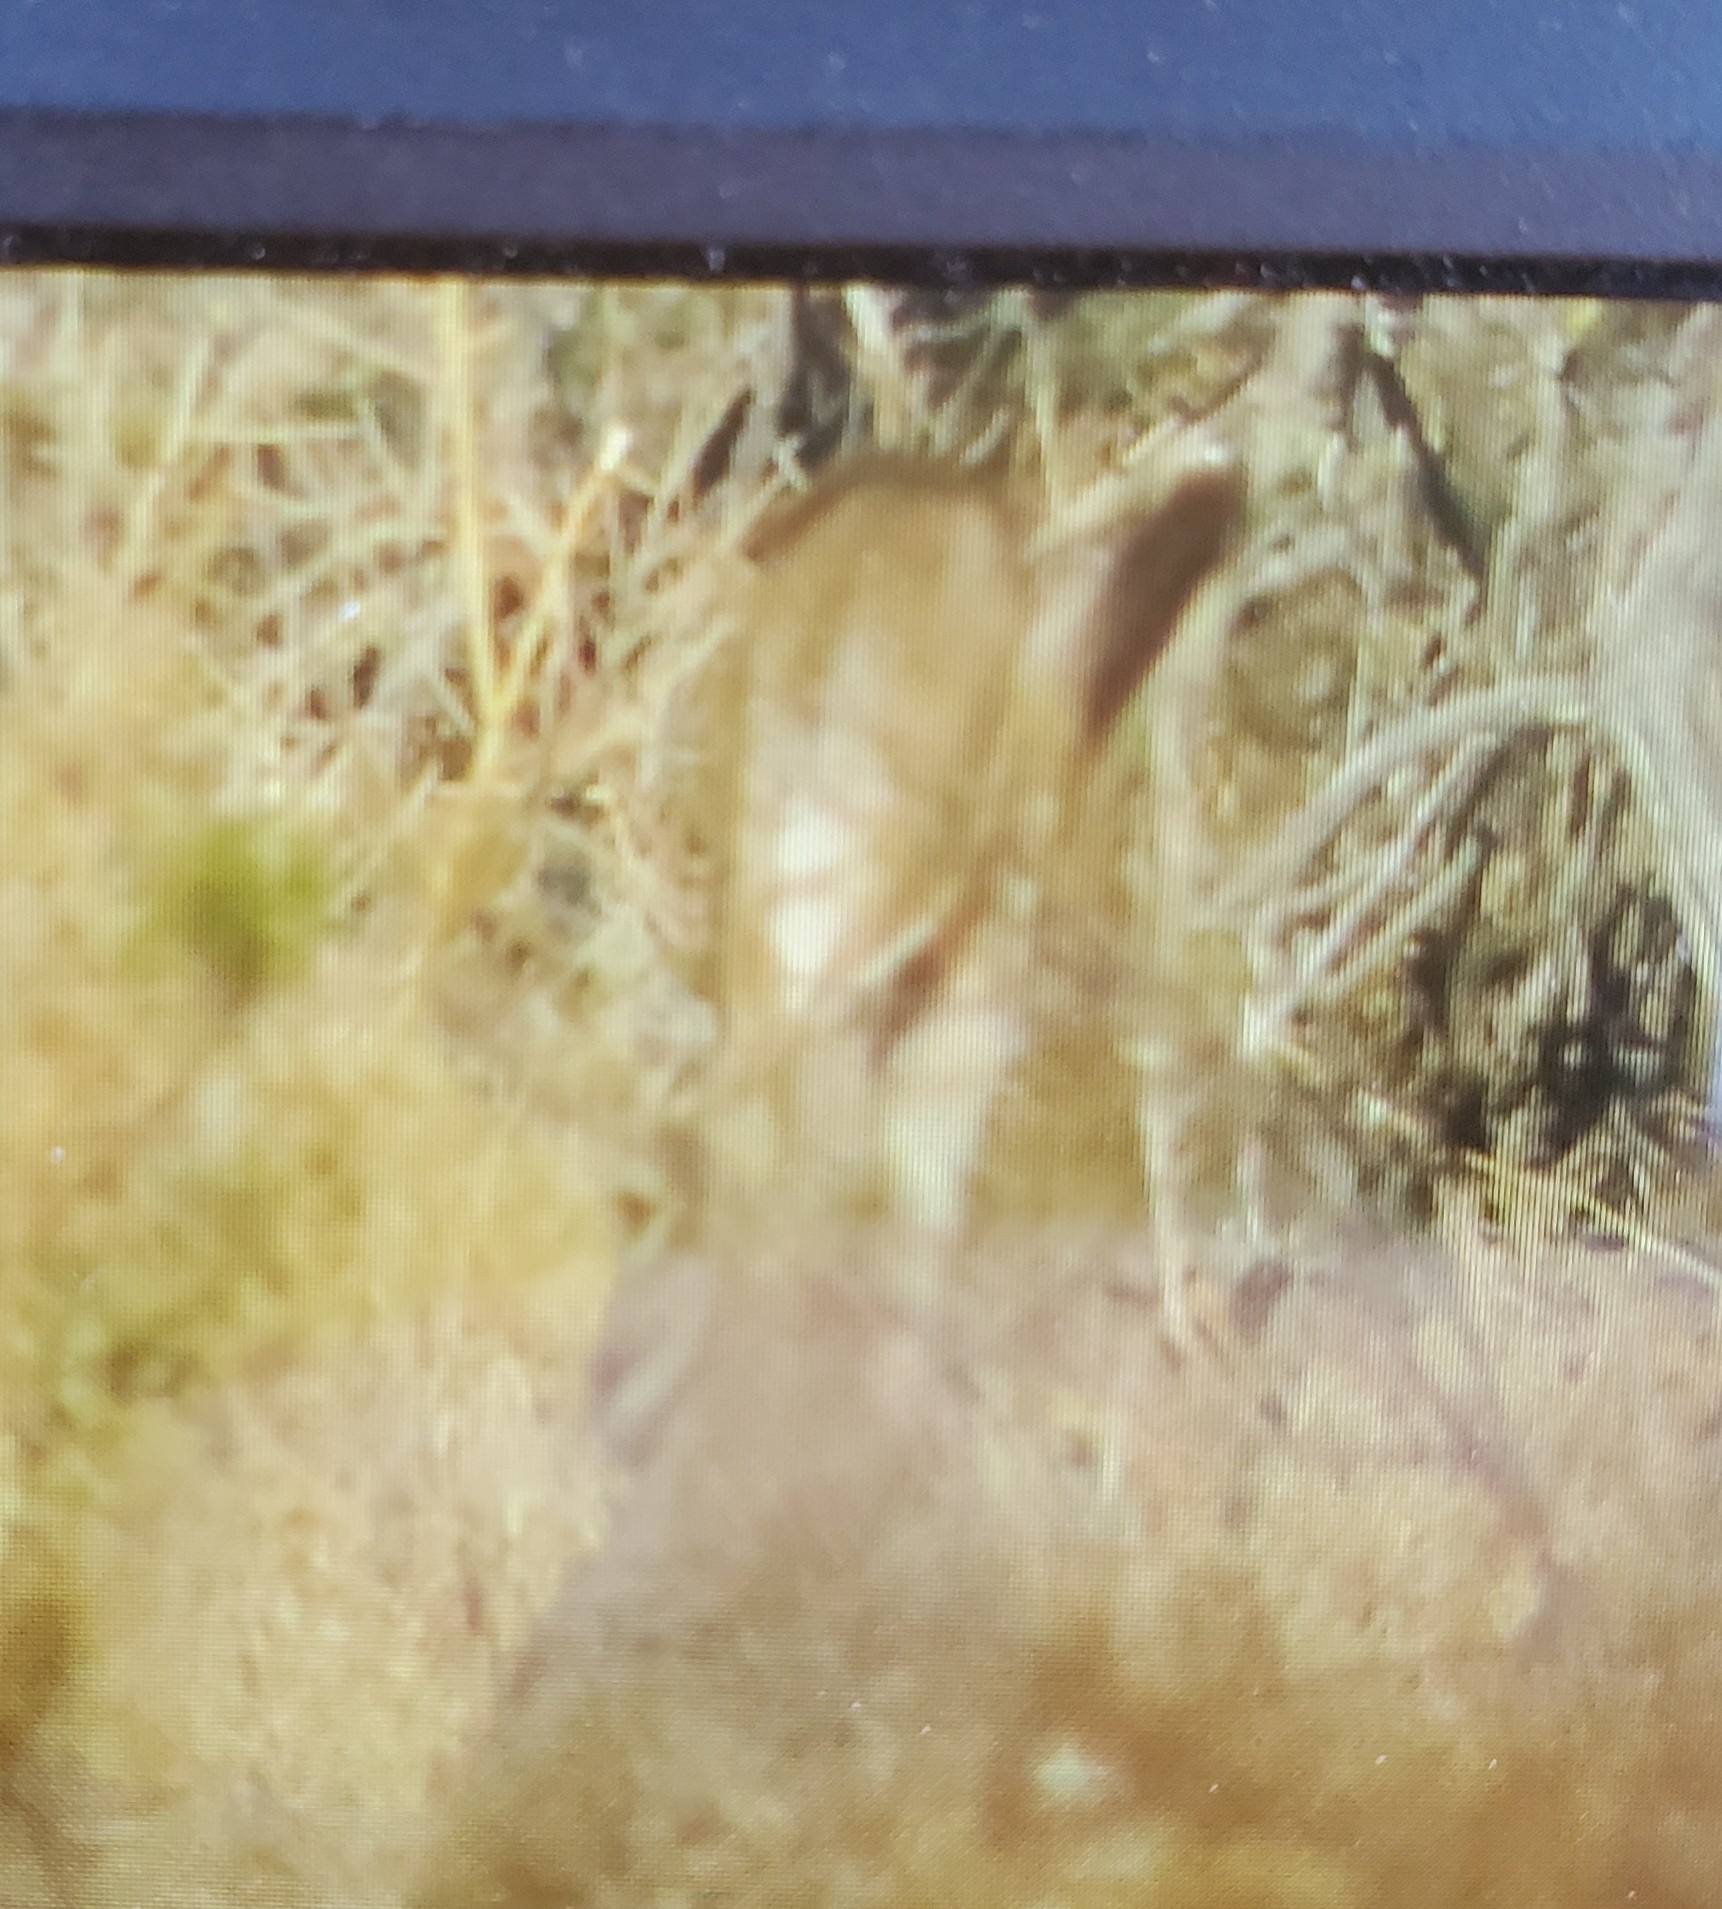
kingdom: Animalia
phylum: Chordata
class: Mammalia
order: Lagomorpha
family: Leporidae
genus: Lepus
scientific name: Lepus californicus
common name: Black-tailed jackrabbit
